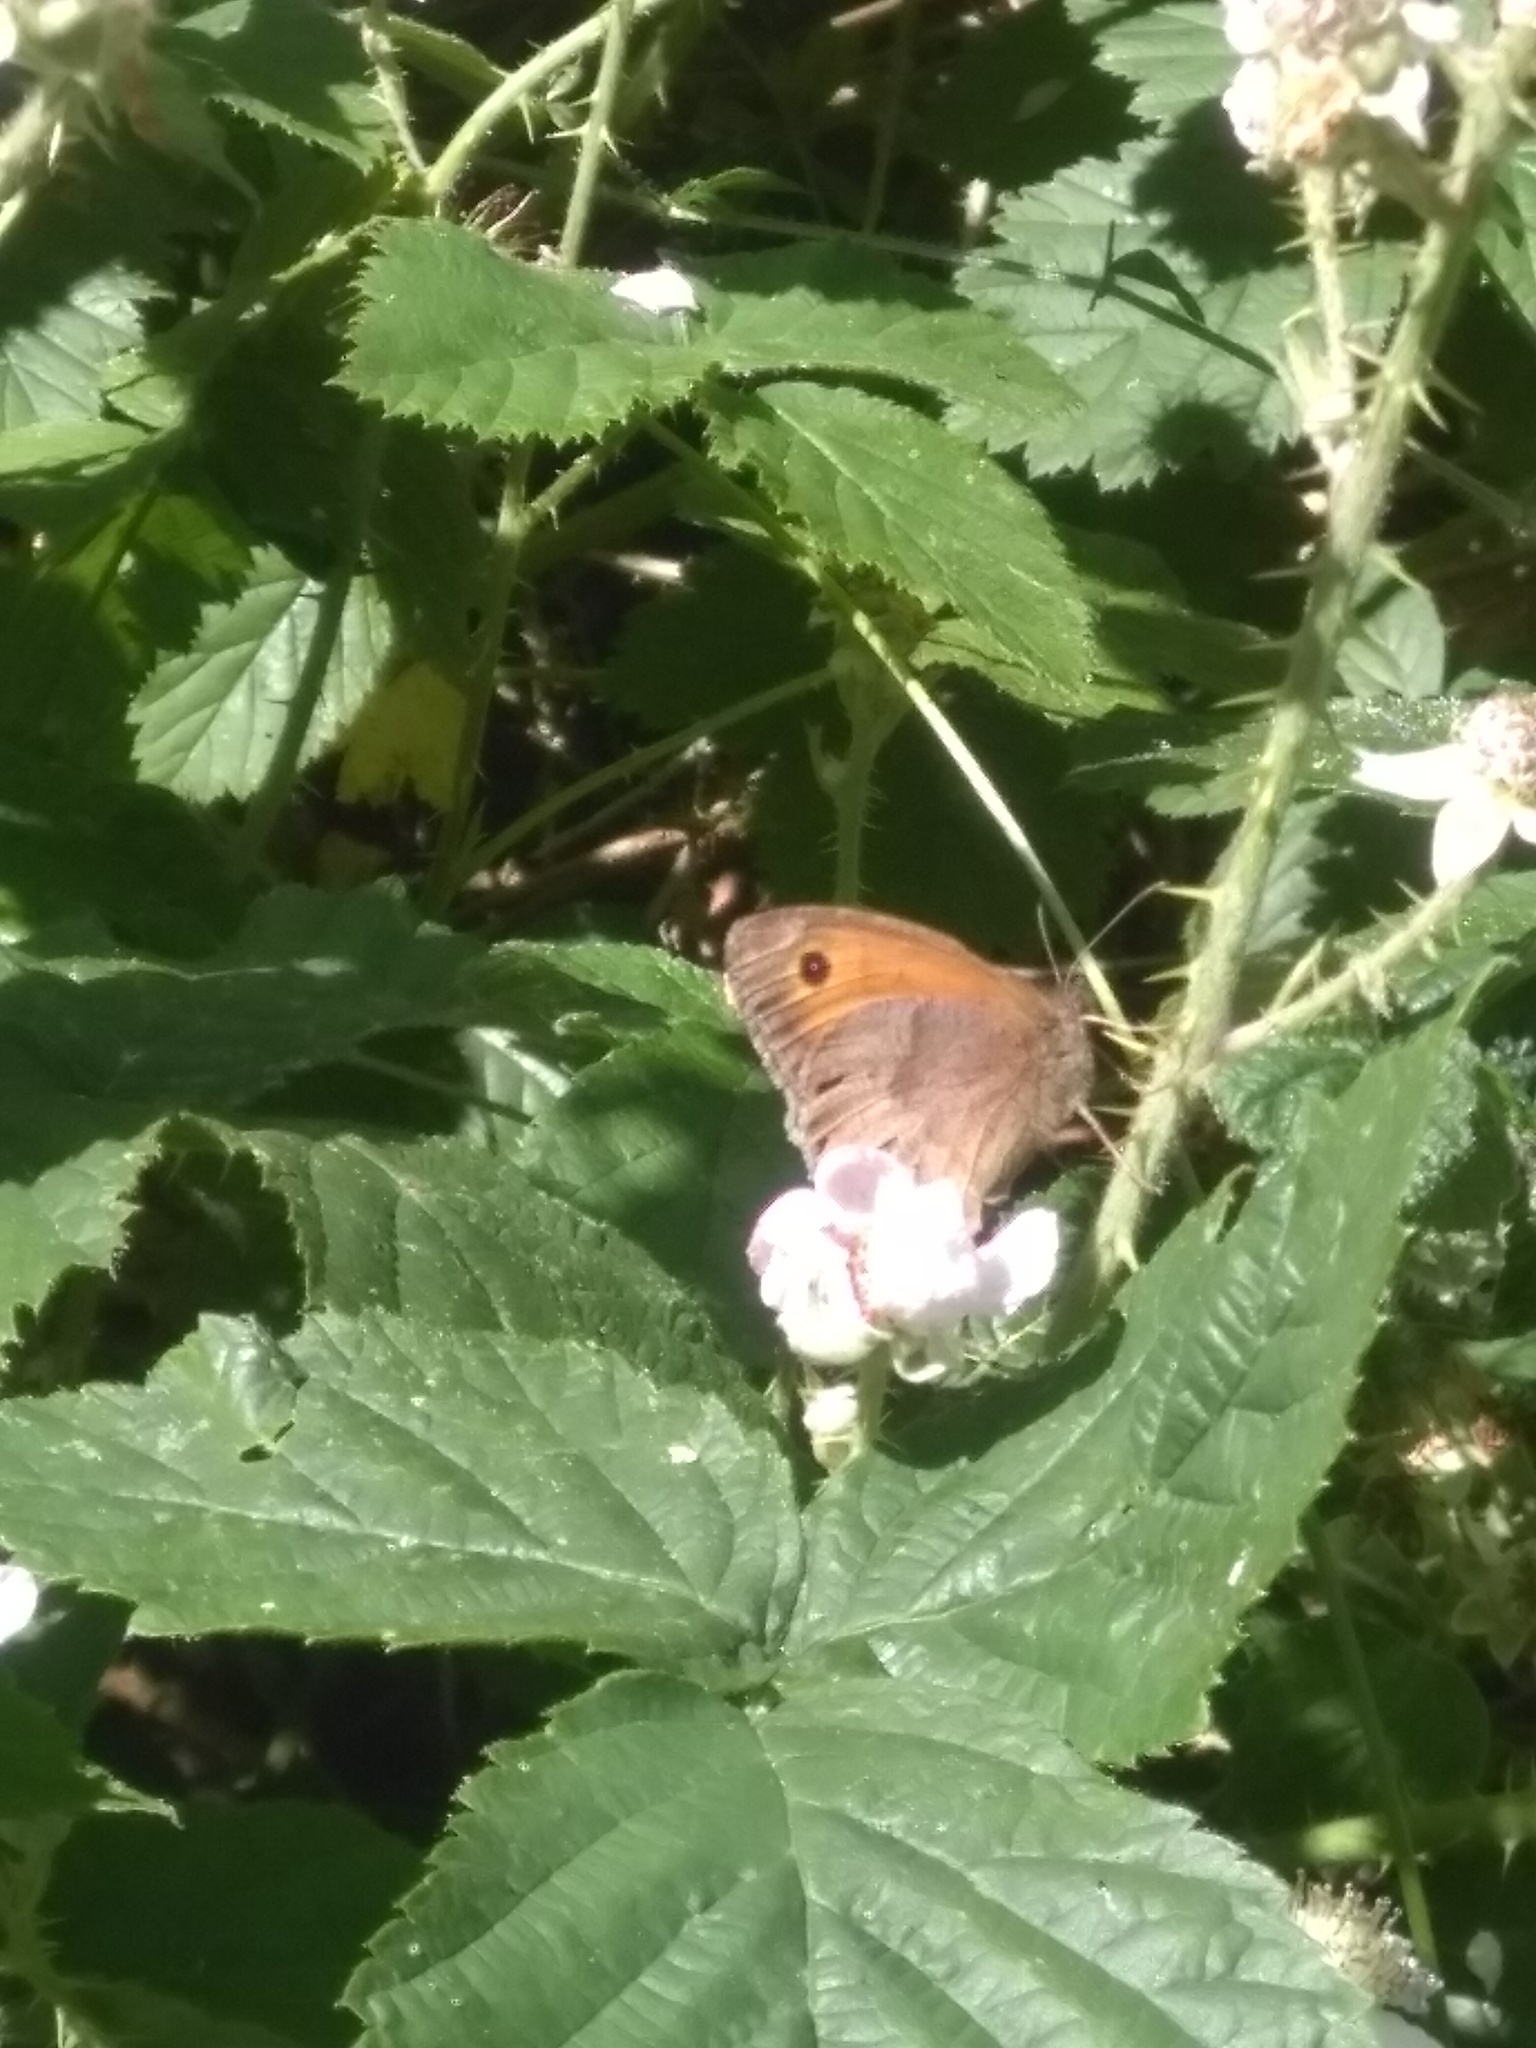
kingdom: Animalia
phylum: Arthropoda
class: Insecta
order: Lepidoptera
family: Nymphalidae
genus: Maniola
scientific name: Maniola jurtina
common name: Meadow brown
